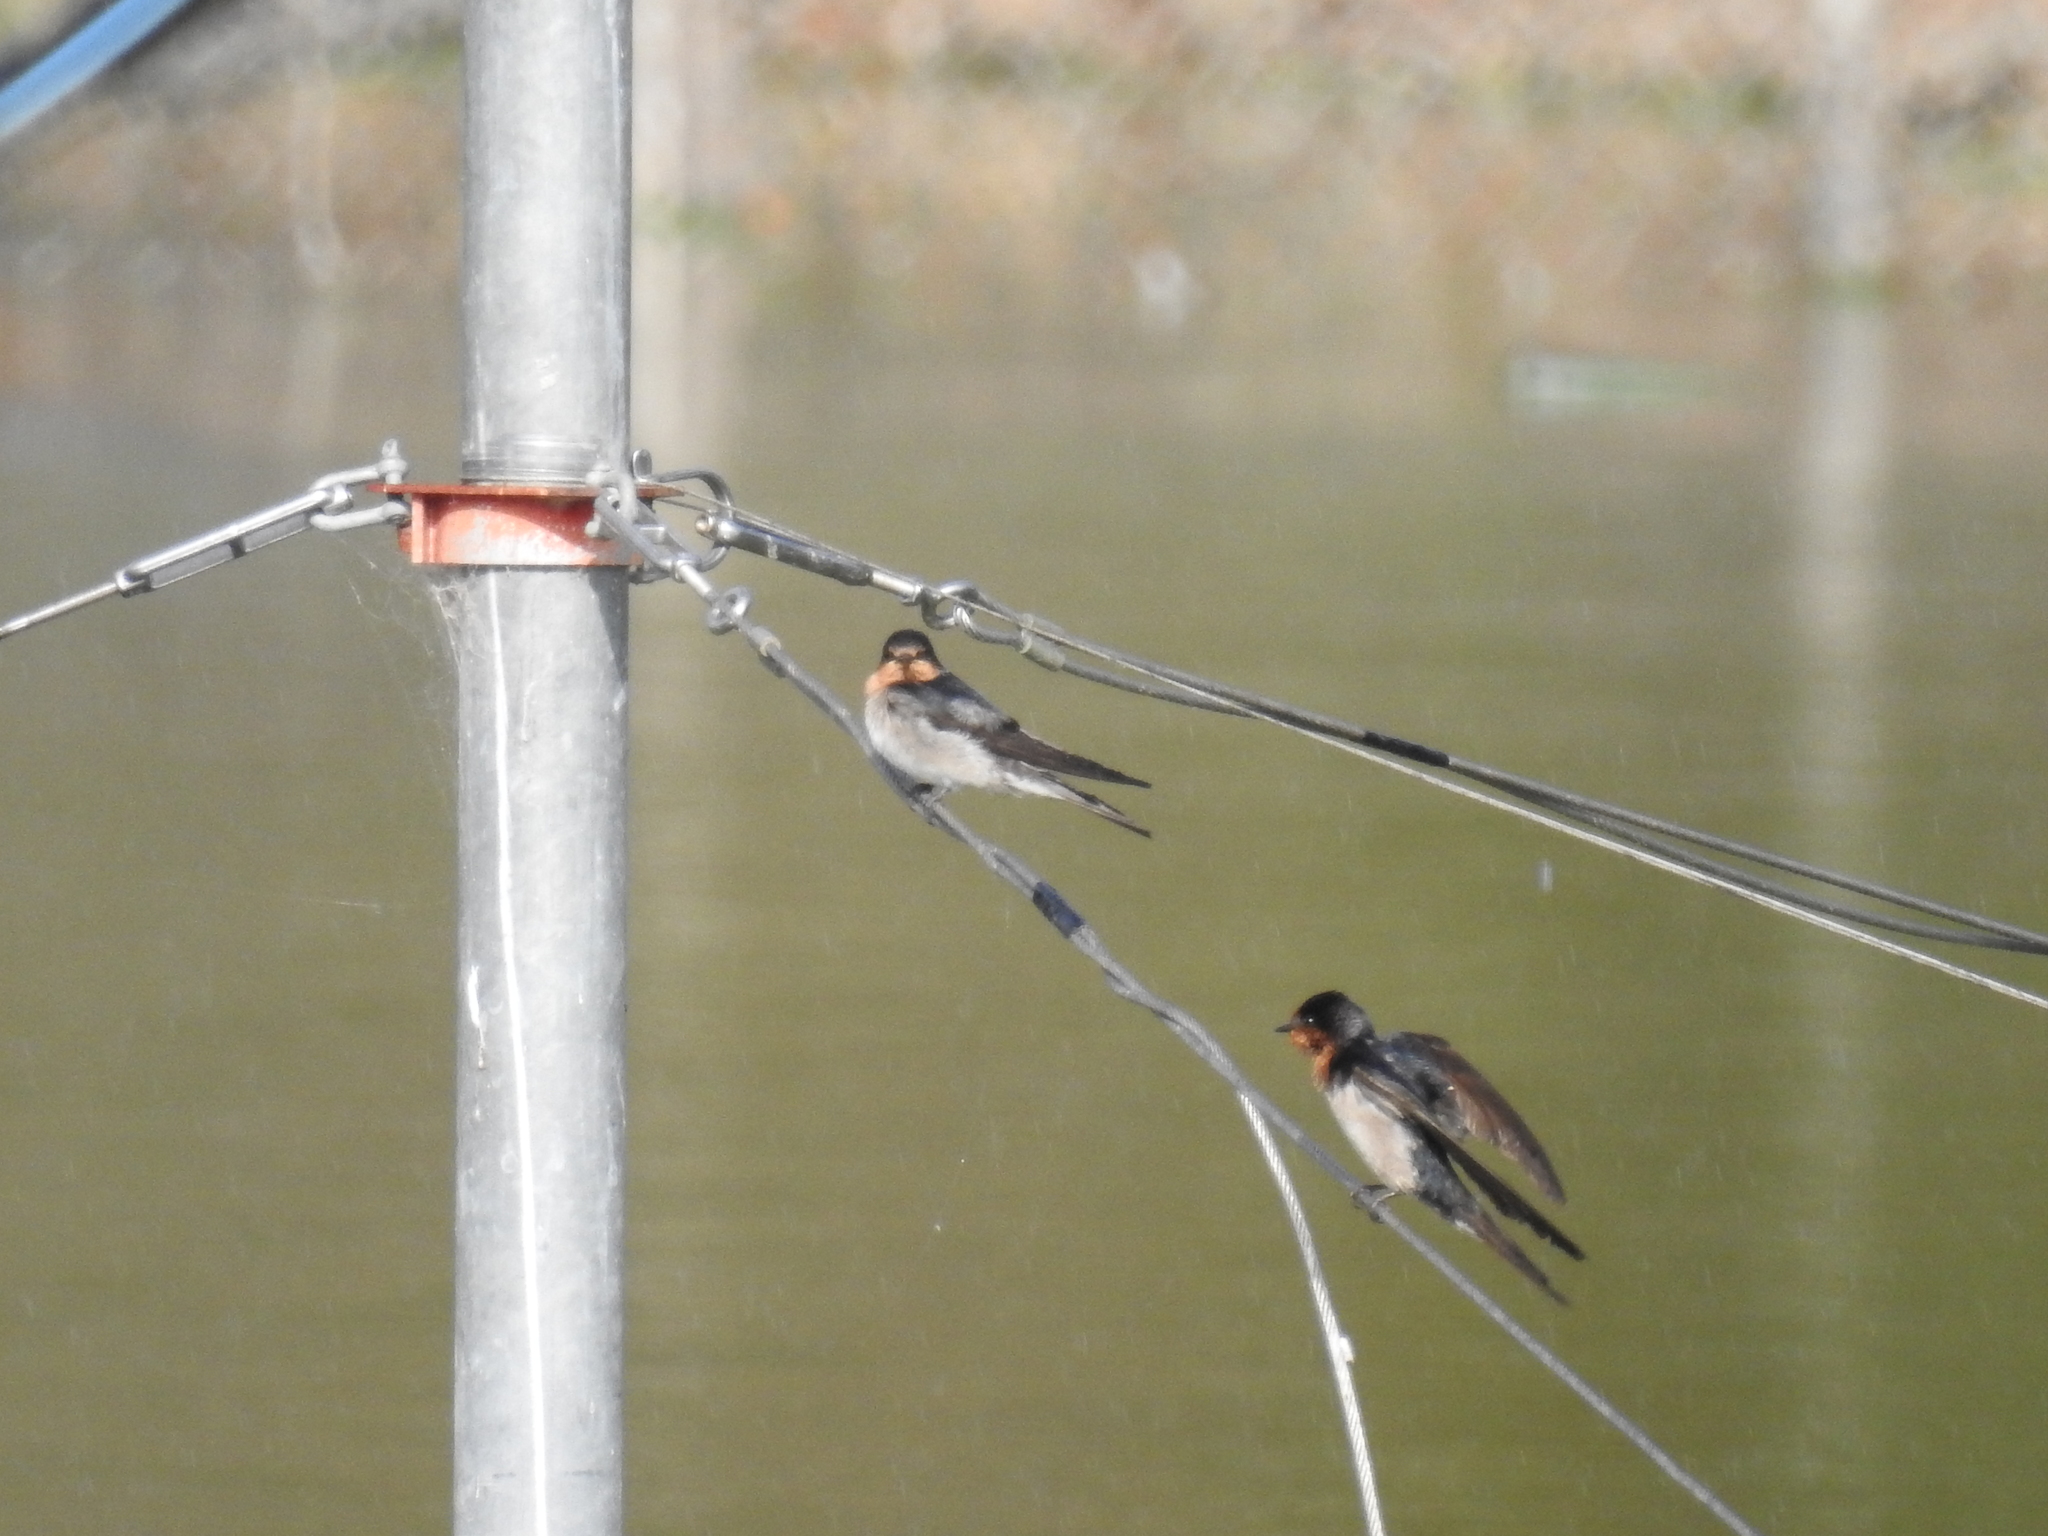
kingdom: Animalia
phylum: Chordata
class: Aves
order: Passeriformes
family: Hirundinidae
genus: Hirundo
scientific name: Hirundo neoxena
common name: Welcome swallow
